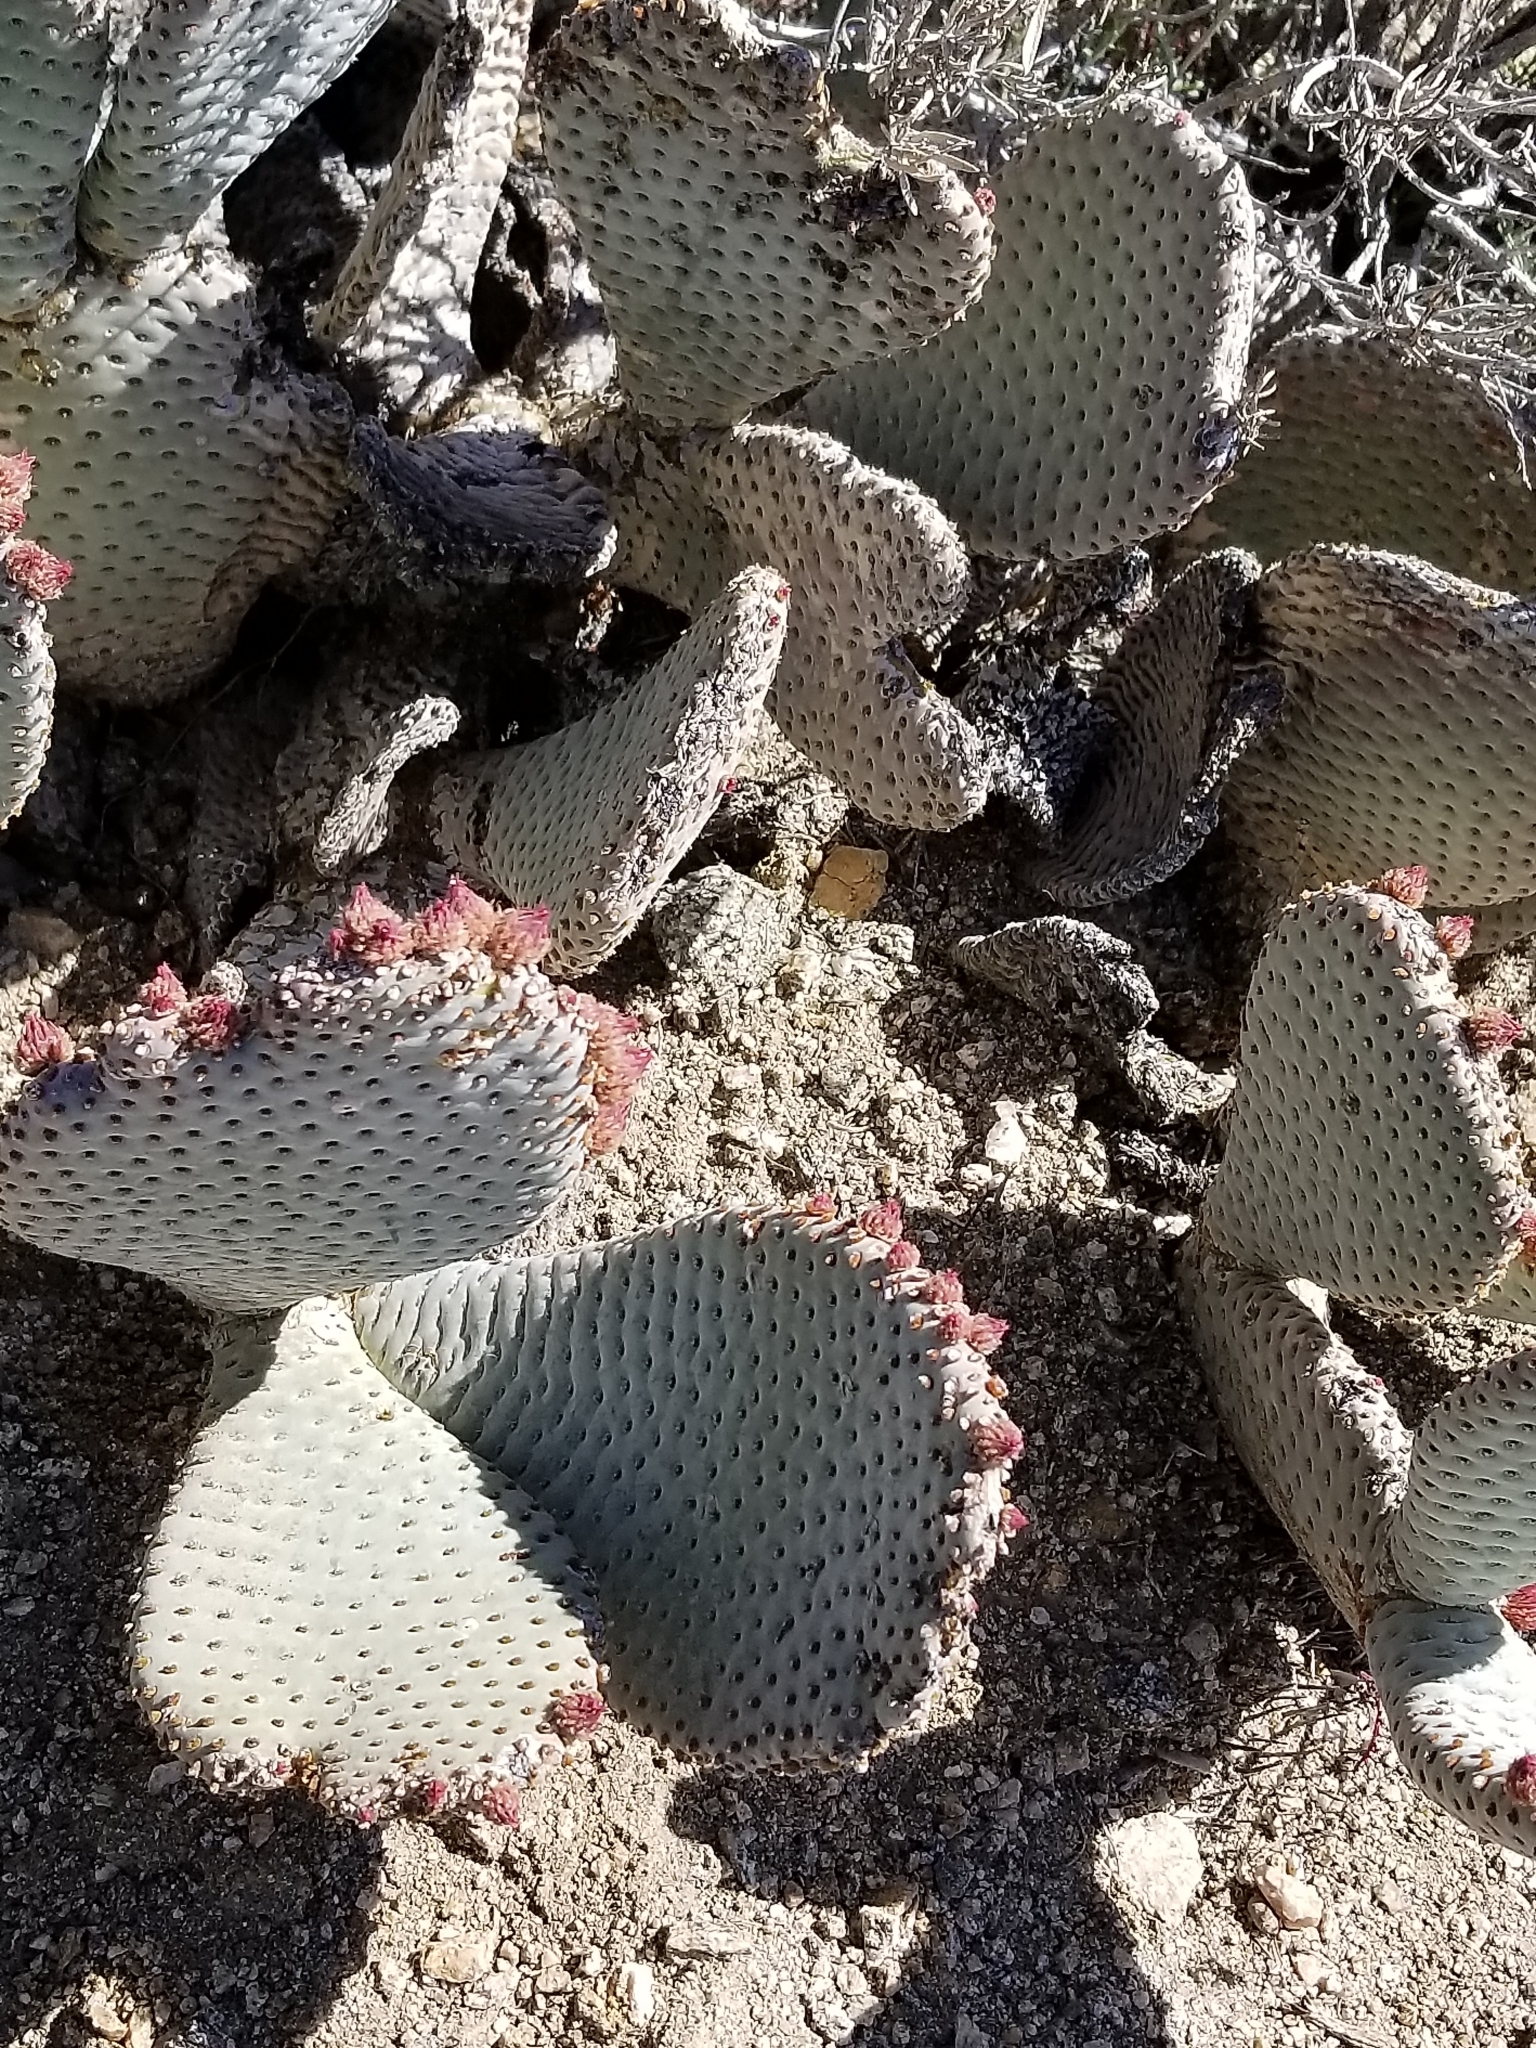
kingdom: Plantae
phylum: Tracheophyta
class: Magnoliopsida
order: Caryophyllales
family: Cactaceae
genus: Opuntia
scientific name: Opuntia basilaris
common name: Beavertail prickly-pear
